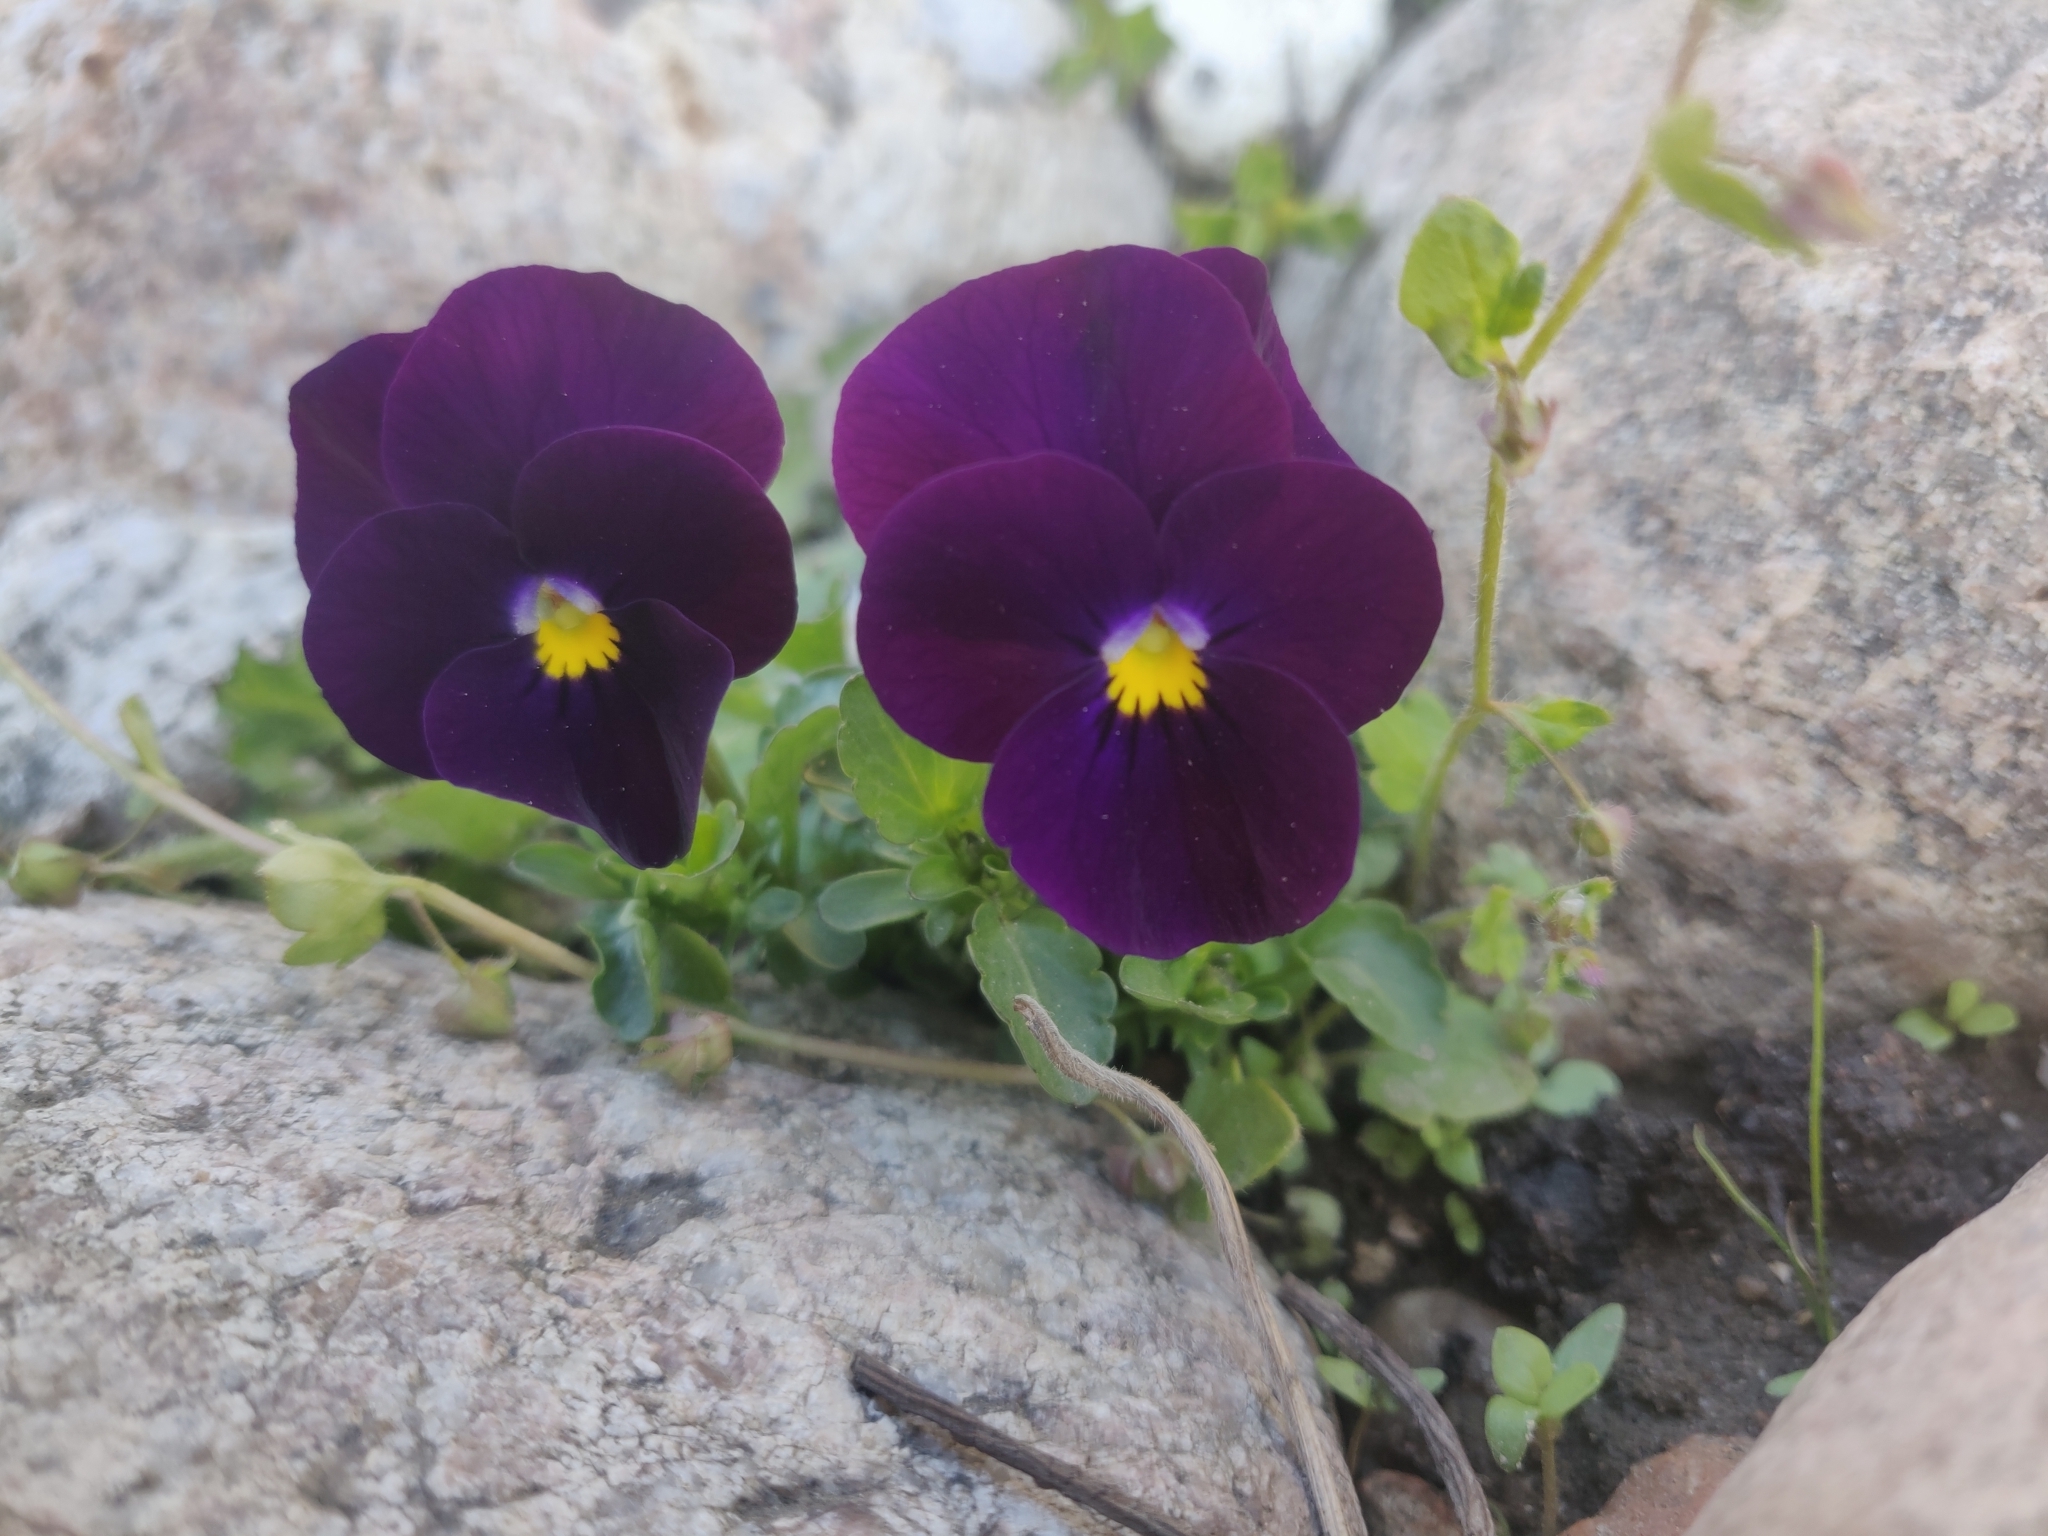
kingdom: Plantae
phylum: Tracheophyta
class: Magnoliopsida
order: Malpighiales
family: Violaceae
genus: Viola
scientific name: Viola wittrockiana
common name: Garden pansy
